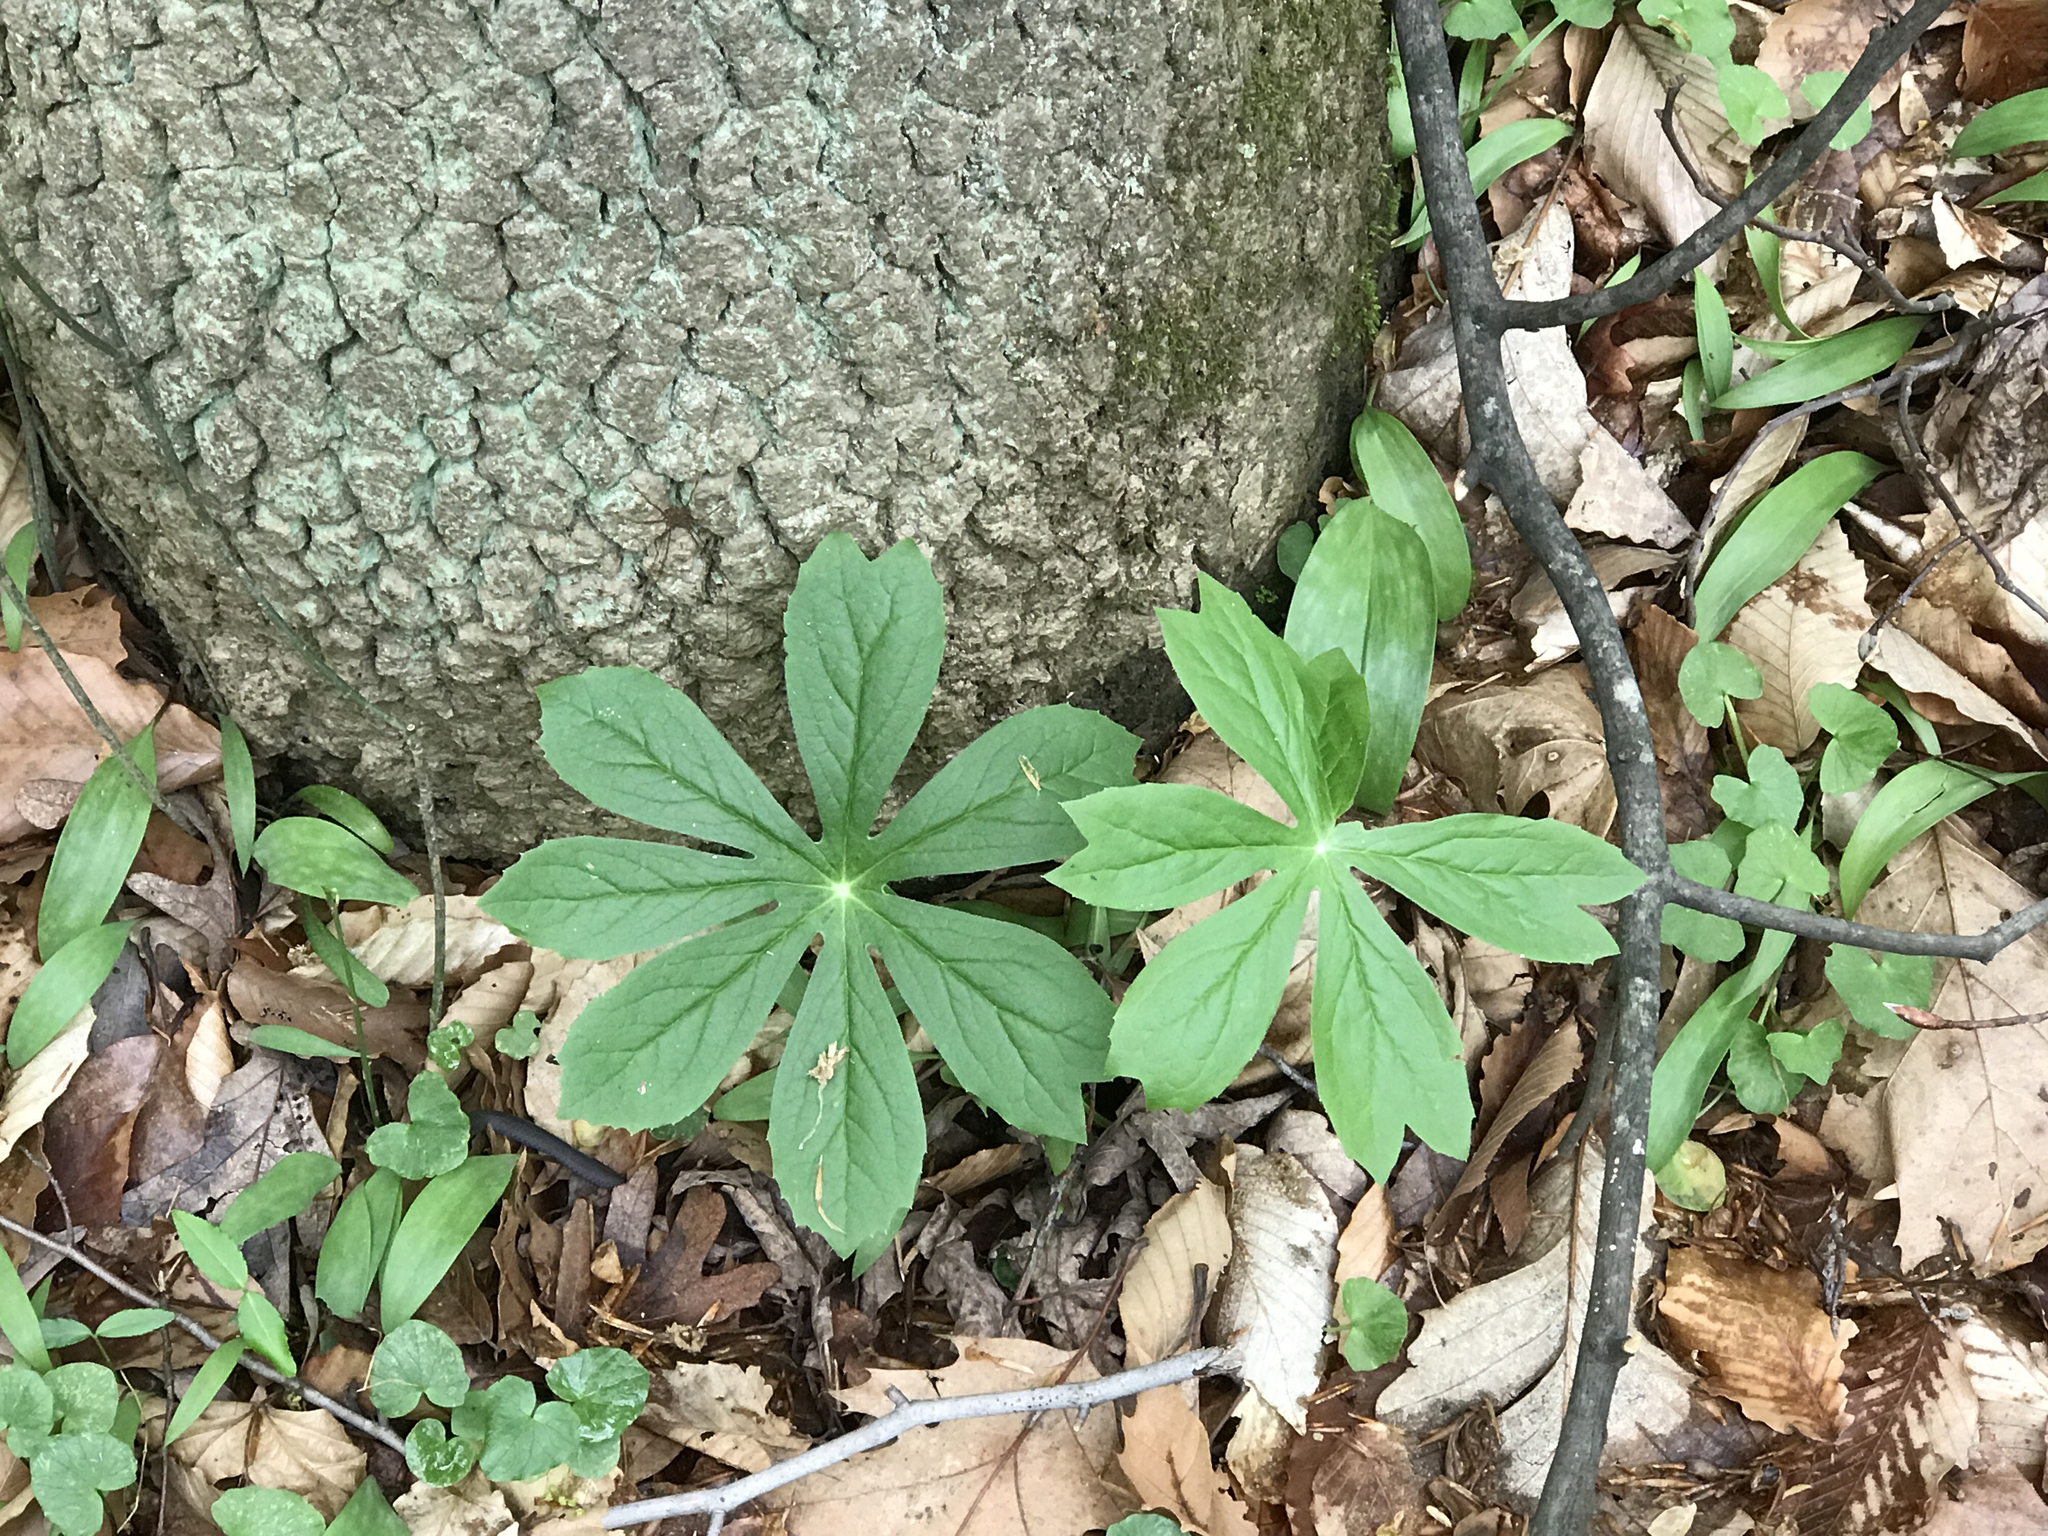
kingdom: Plantae
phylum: Tracheophyta
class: Magnoliopsida
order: Ranunculales
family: Berberidaceae
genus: Podophyllum
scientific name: Podophyllum peltatum
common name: Wild mandrake
